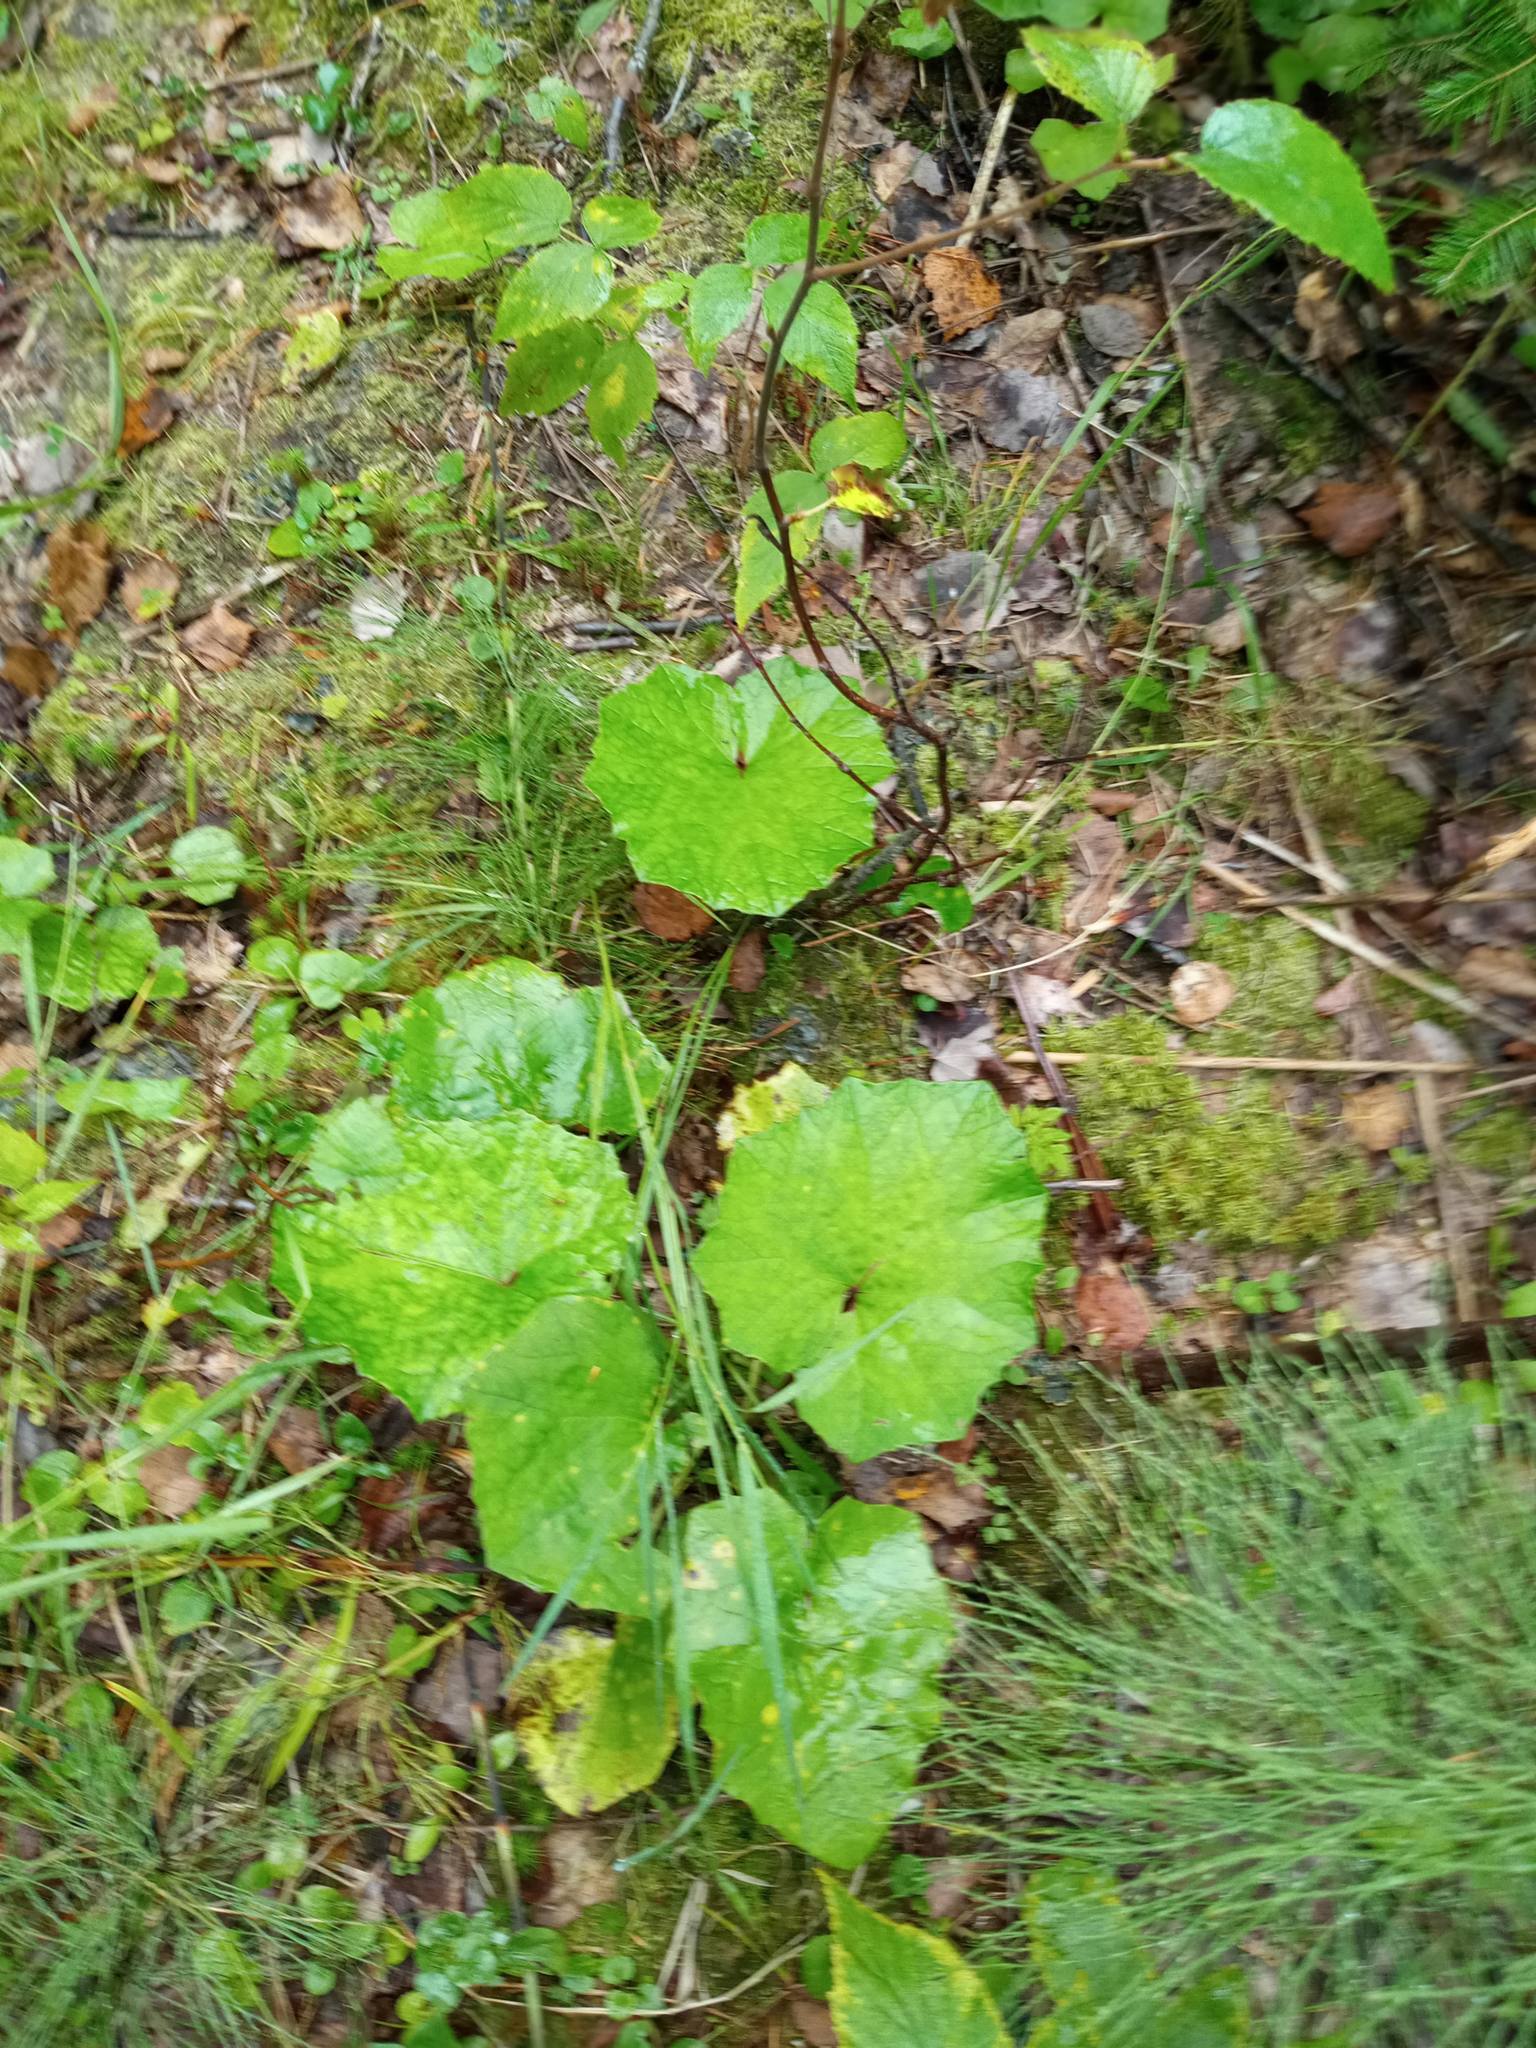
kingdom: Plantae
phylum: Tracheophyta
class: Magnoliopsida
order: Asterales
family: Asteraceae
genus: Tussilago
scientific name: Tussilago farfara
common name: Coltsfoot
